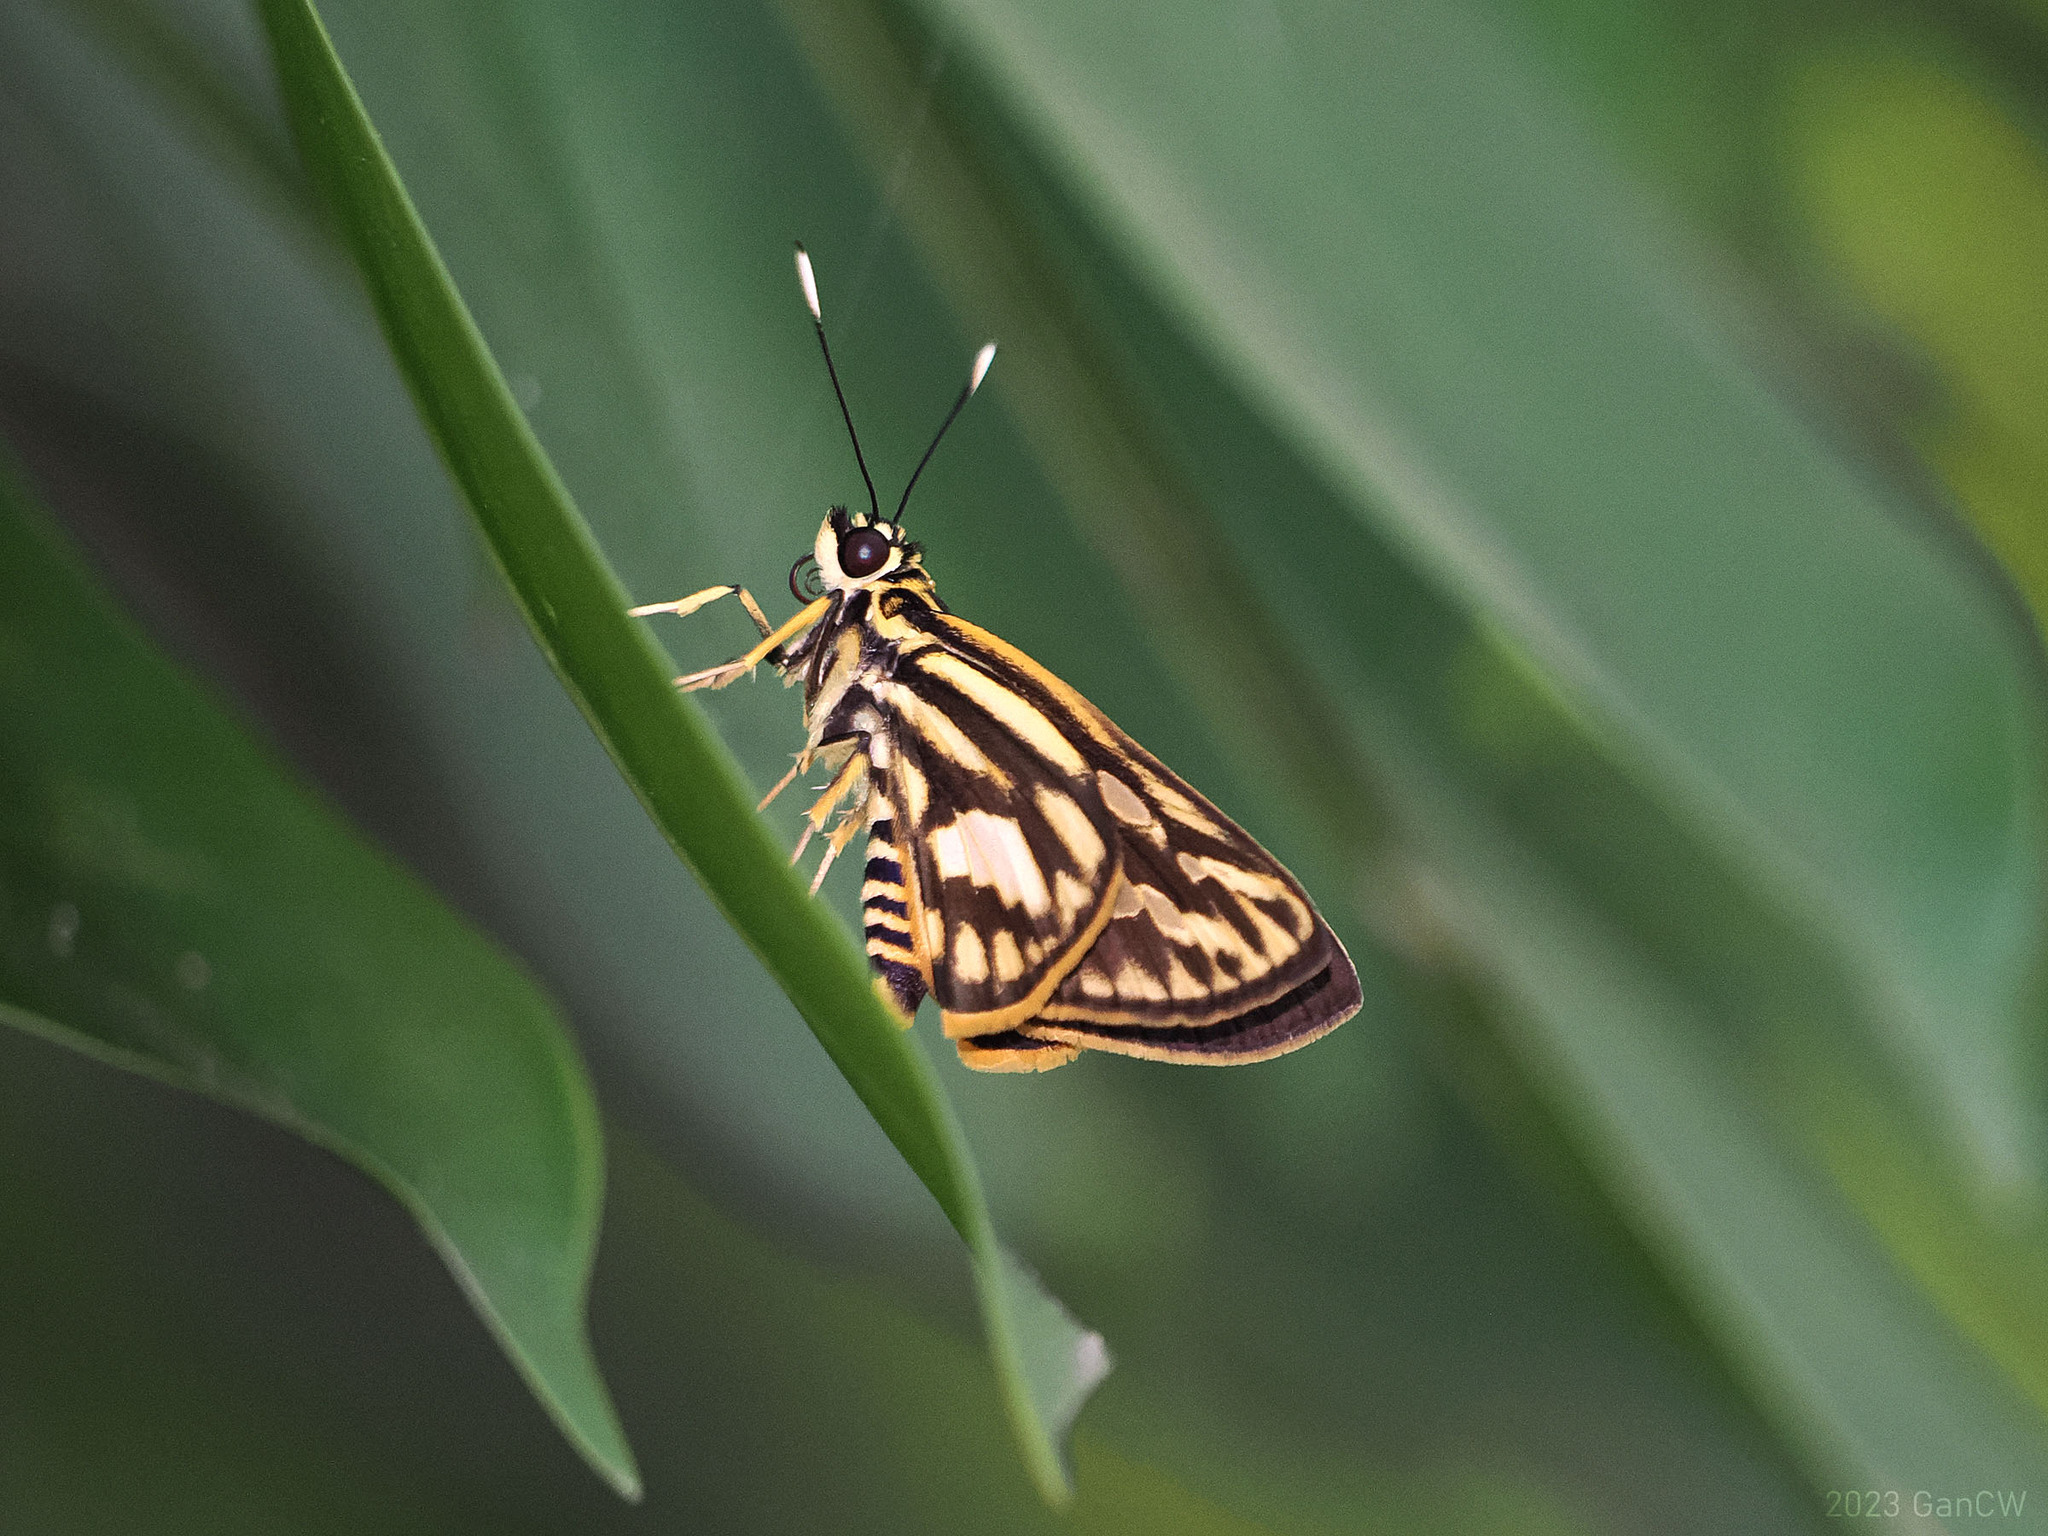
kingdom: Animalia
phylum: Arthropoda
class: Insecta
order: Lepidoptera
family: Hesperiidae
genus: Pyroneura
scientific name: Pyroneura liburnia
